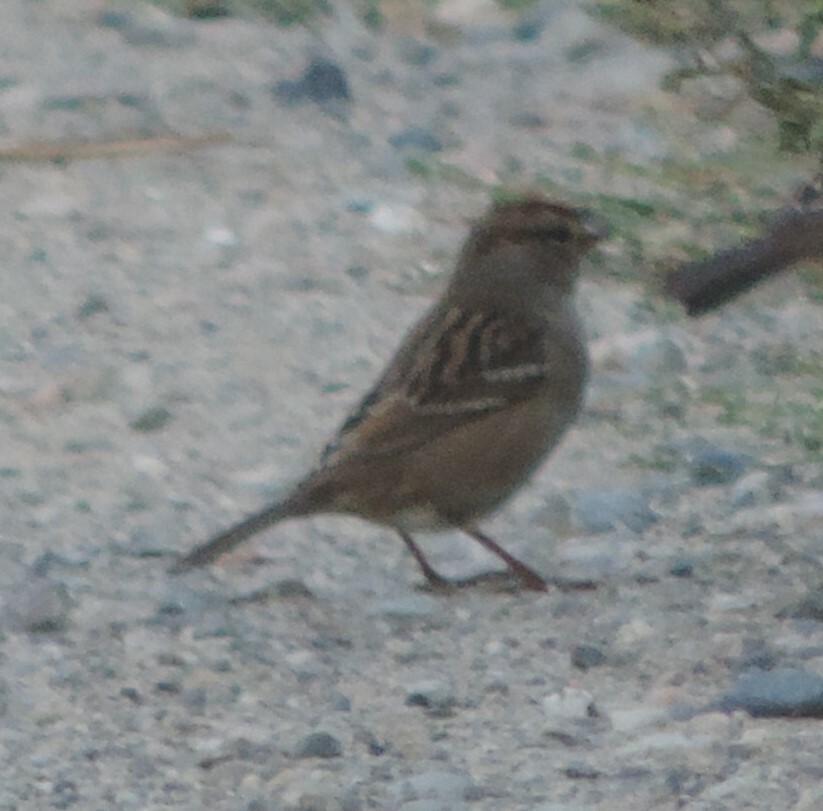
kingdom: Animalia
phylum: Chordata
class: Aves
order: Passeriformes
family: Passerellidae
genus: Zonotrichia
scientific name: Zonotrichia leucophrys
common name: White-crowned sparrow
